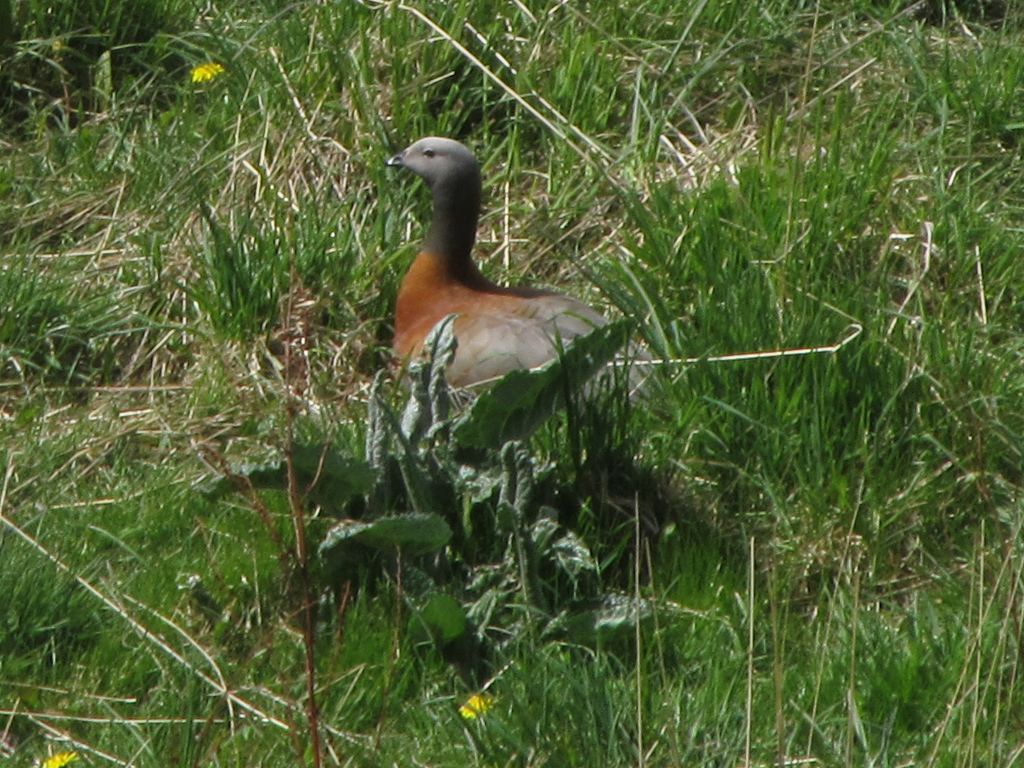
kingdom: Animalia
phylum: Chordata
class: Aves
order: Anseriformes
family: Anatidae
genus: Chloephaga
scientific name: Chloephaga poliocephala
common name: Ashy-headed goose
